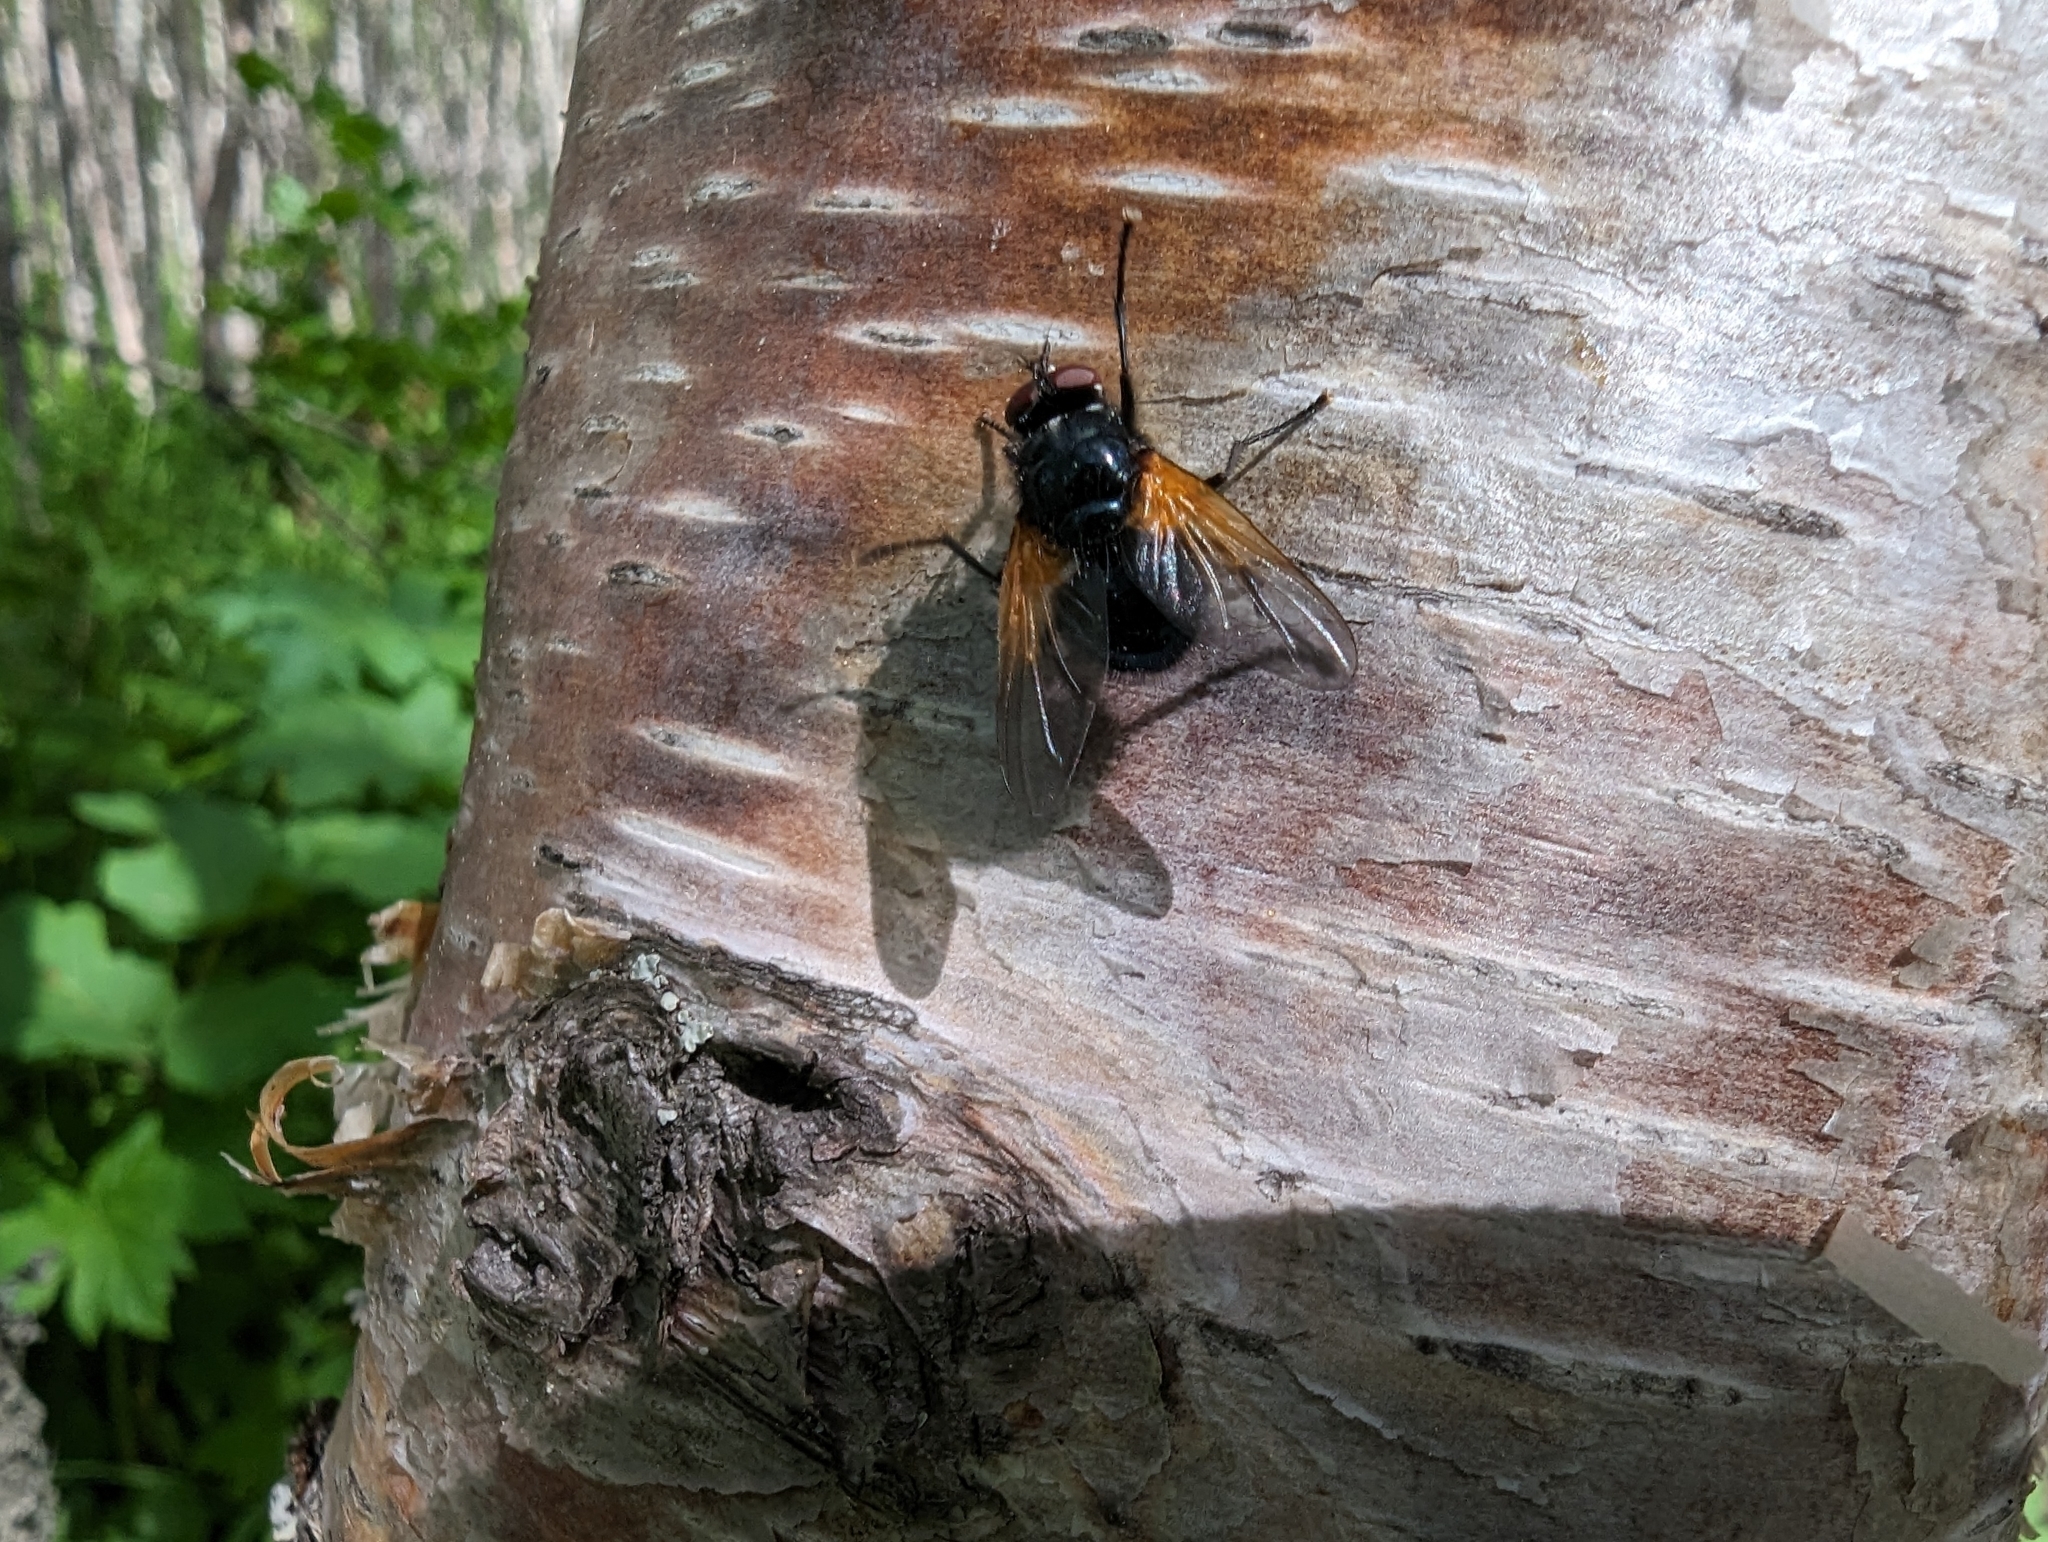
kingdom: Animalia
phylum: Arthropoda
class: Insecta
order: Diptera
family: Muscidae
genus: Mesembrina
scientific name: Mesembrina latreillii
